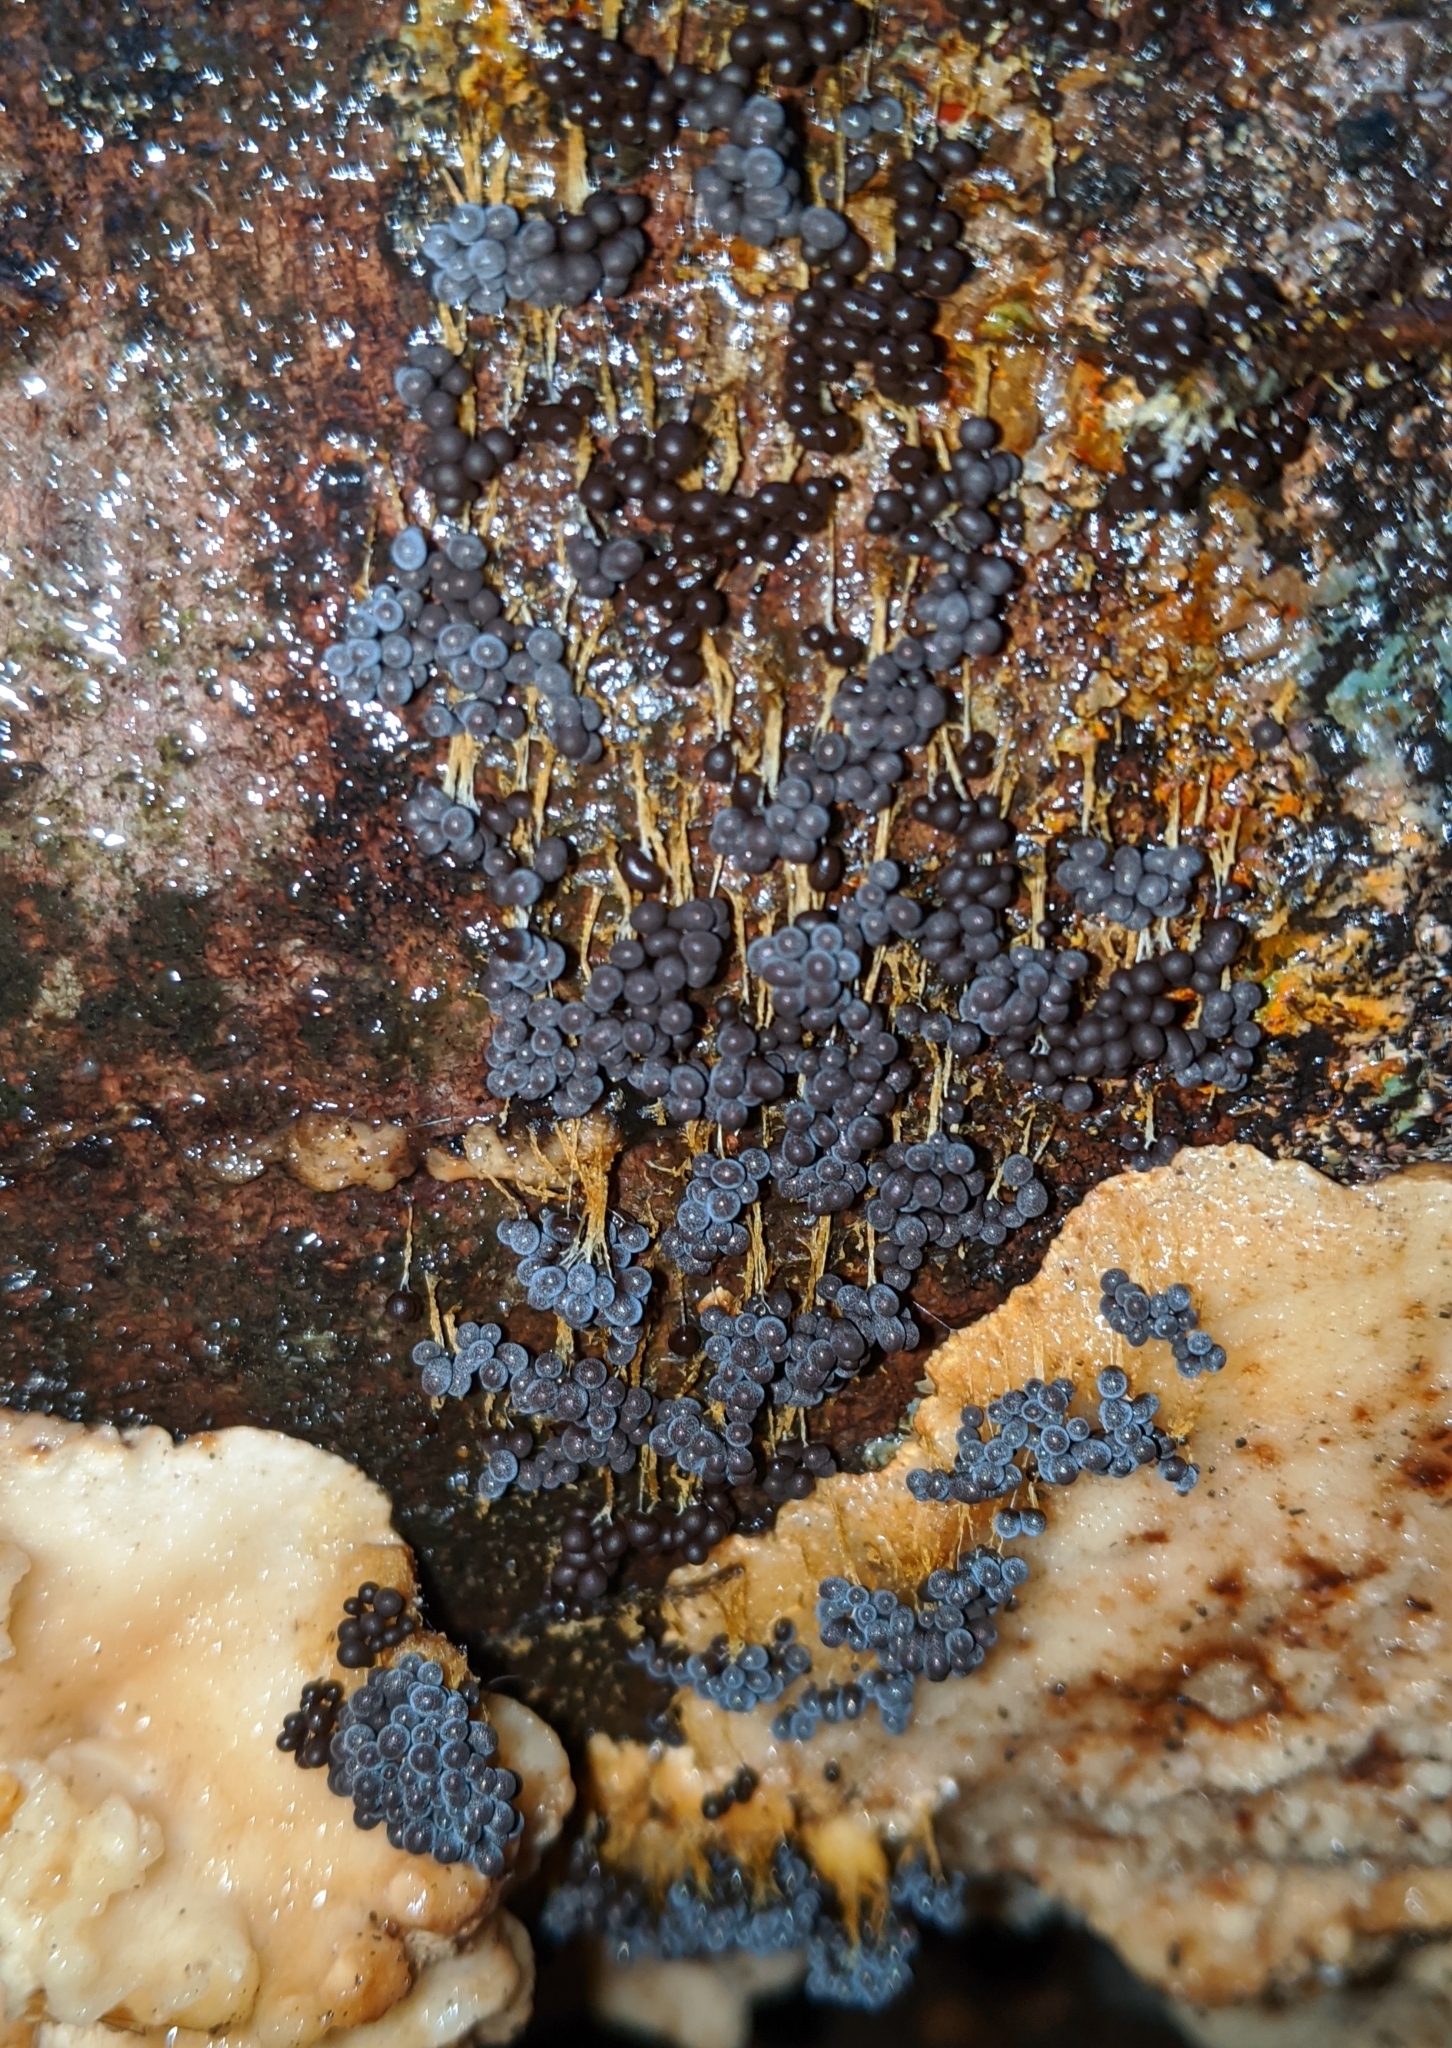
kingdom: Protozoa
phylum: Mycetozoa
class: Myxomycetes
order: Physarales
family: Physaraceae
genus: Badhamia
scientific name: Badhamia utricularis
